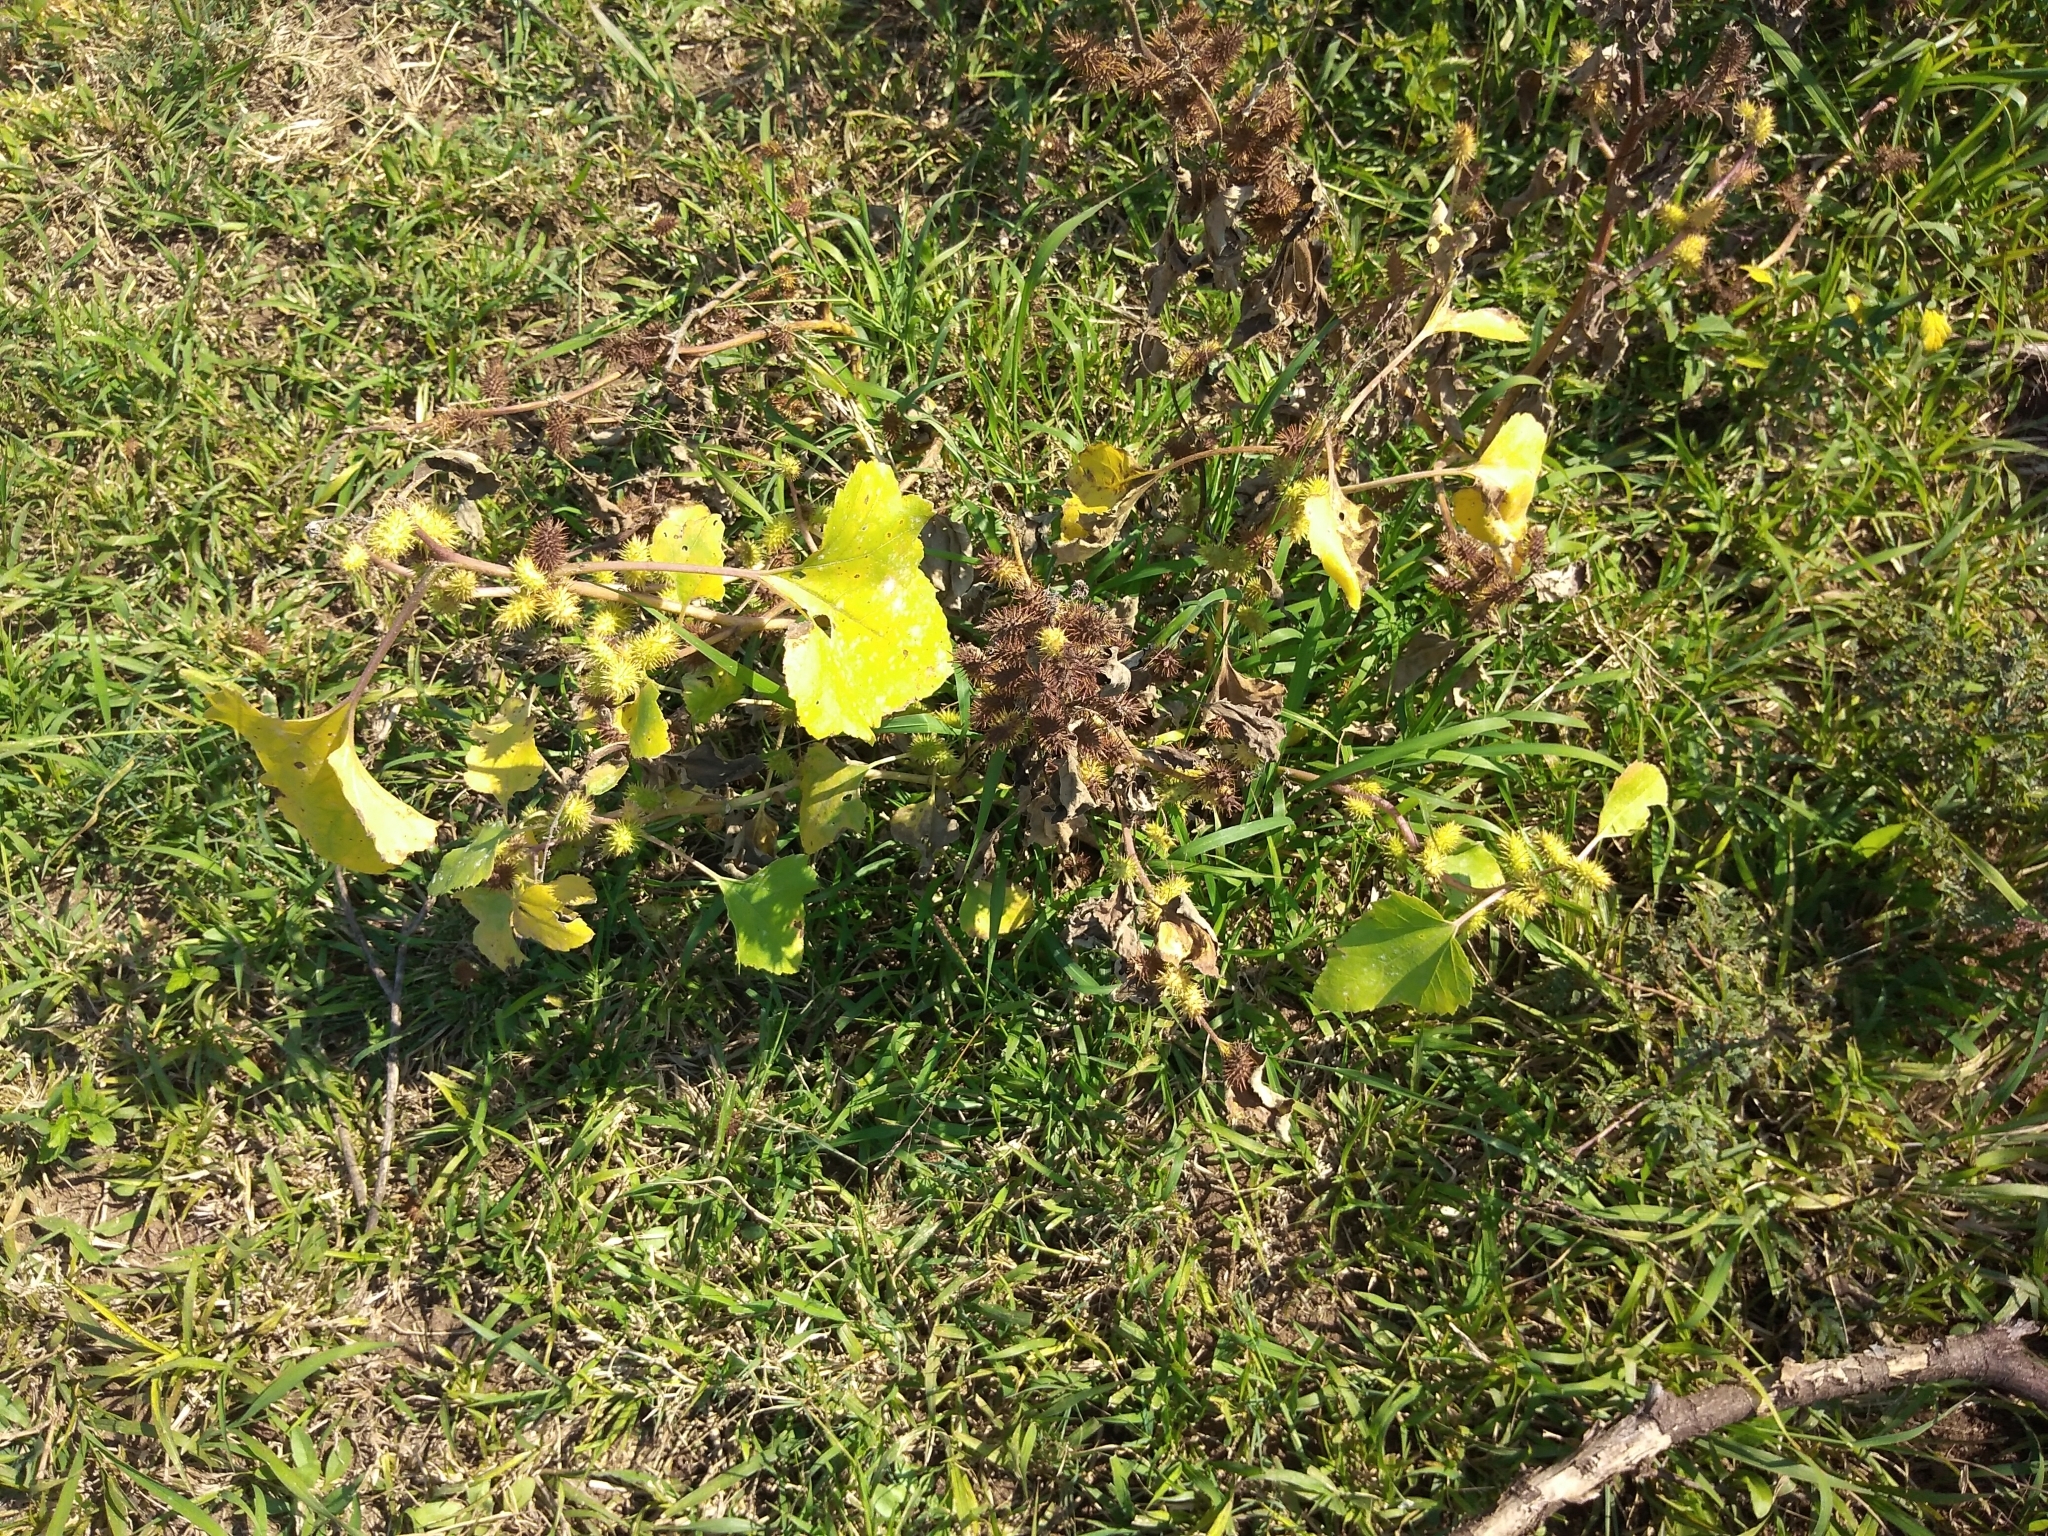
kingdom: Plantae
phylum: Tracheophyta
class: Magnoliopsida
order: Asterales
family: Asteraceae
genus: Xanthium
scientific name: Xanthium strumarium
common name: Rough cocklebur
